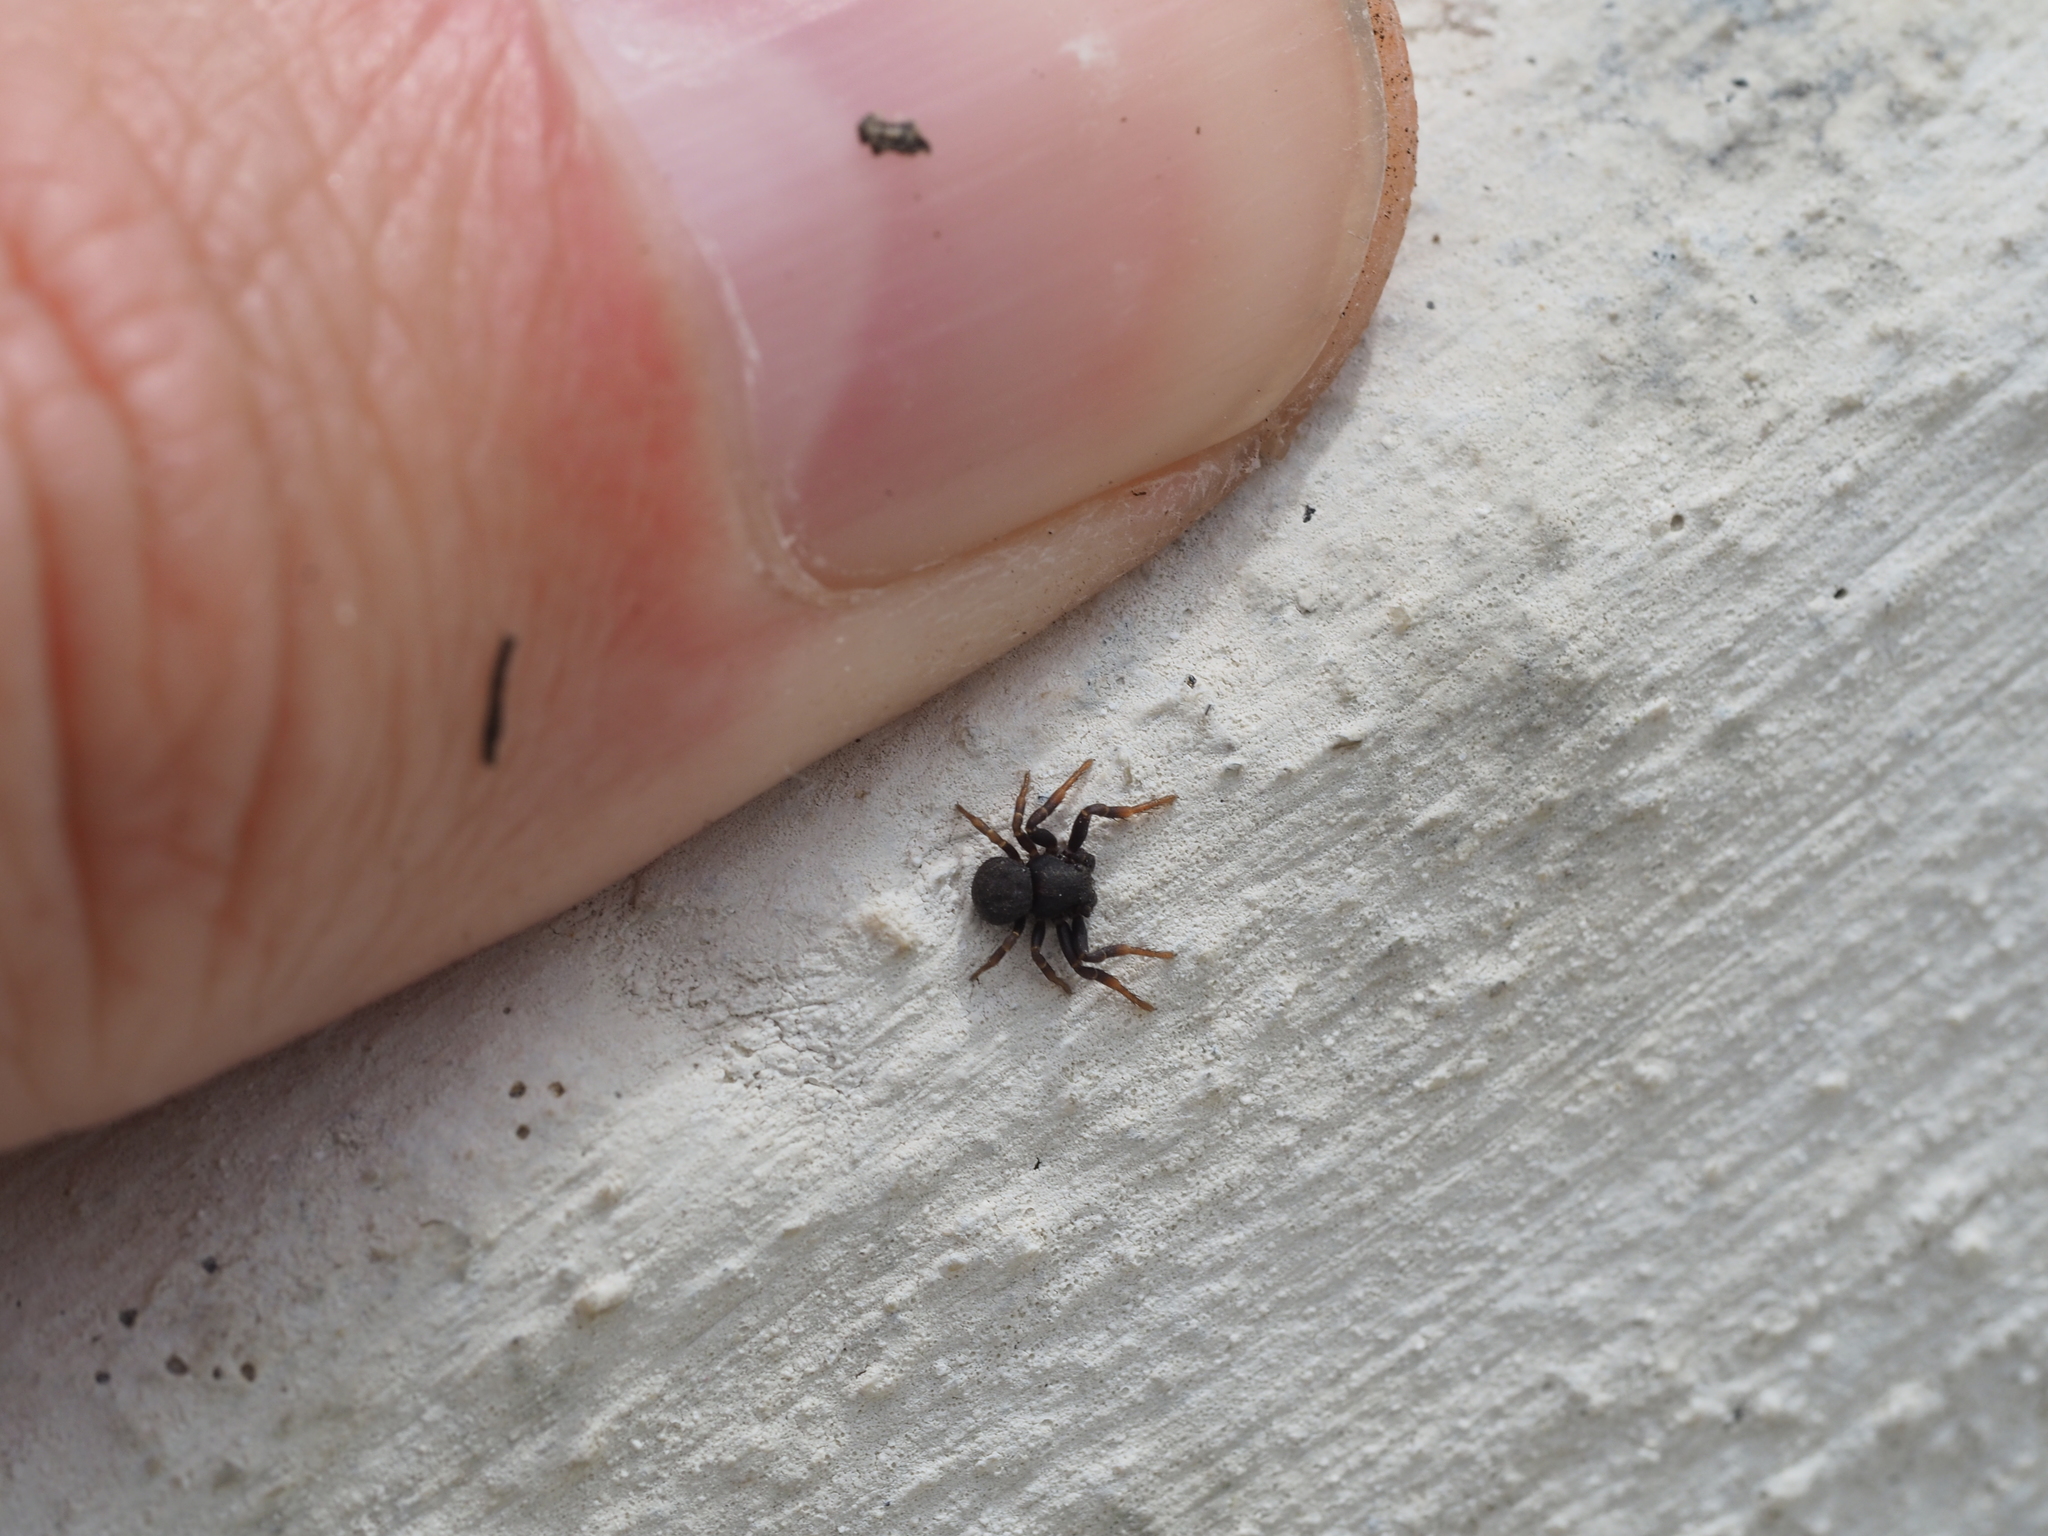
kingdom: Animalia
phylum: Arthropoda
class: Arachnida
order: Araneae
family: Thomisidae
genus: Ozyptila
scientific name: Ozyptila
